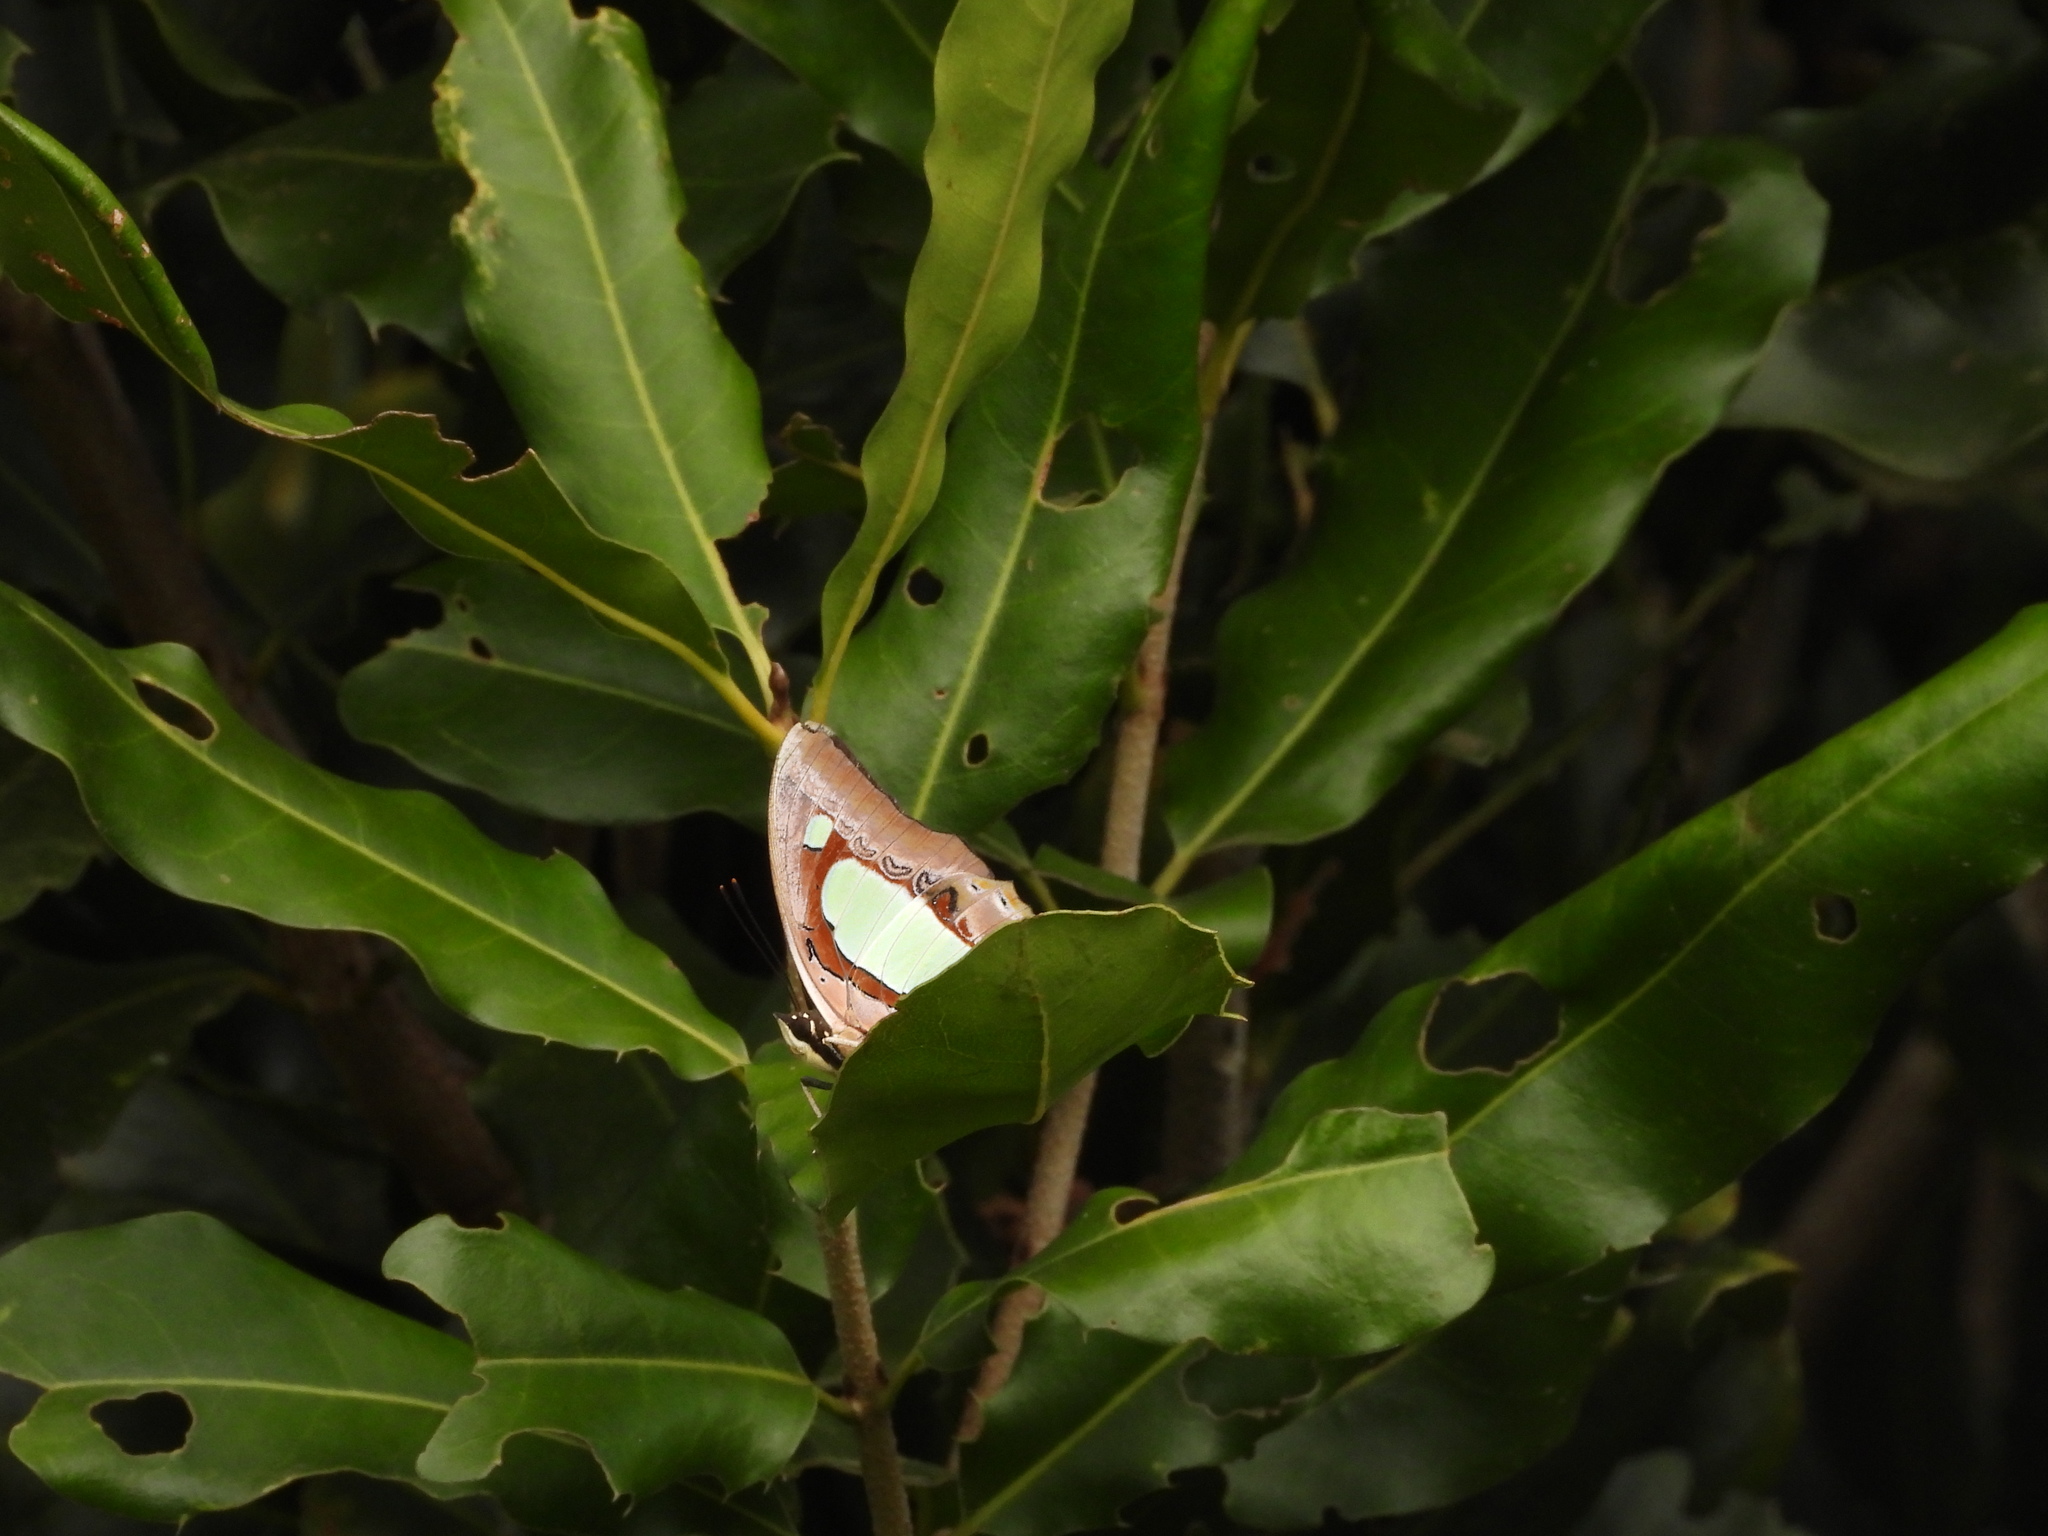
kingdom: Animalia
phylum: Arthropoda
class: Insecta
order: Lepidoptera
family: Nymphalidae
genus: Polyura
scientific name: Polyura athamas
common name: Common nawab
